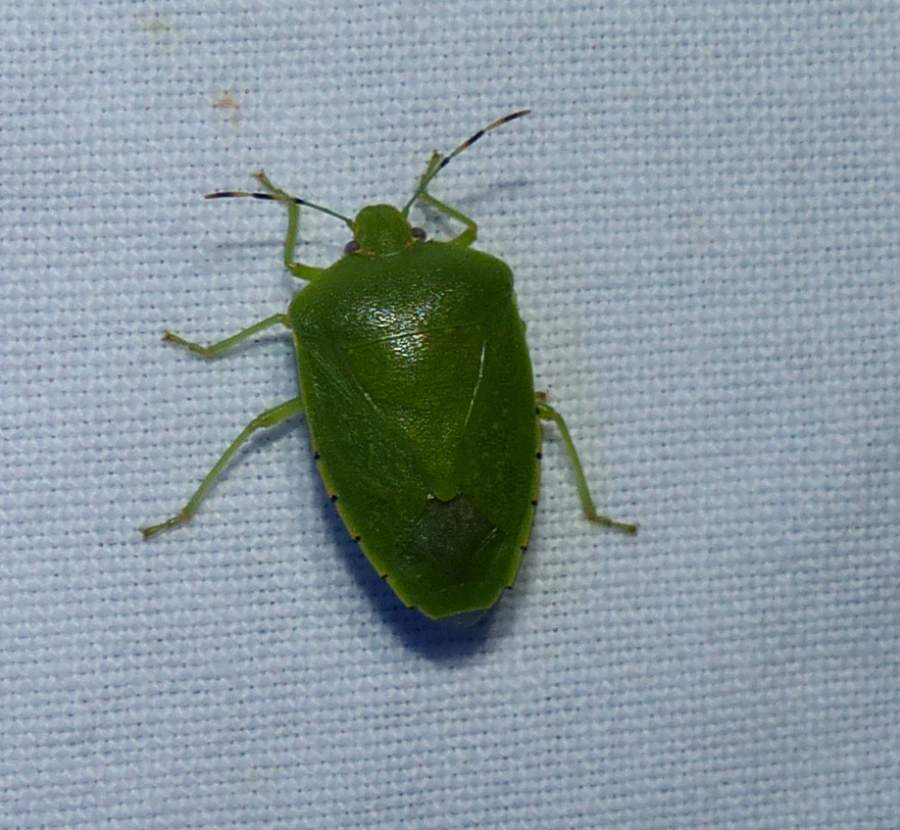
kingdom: Animalia
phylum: Arthropoda
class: Insecta
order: Hemiptera
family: Pentatomidae
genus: Chinavia
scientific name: Chinavia hilaris
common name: Green stink bug
